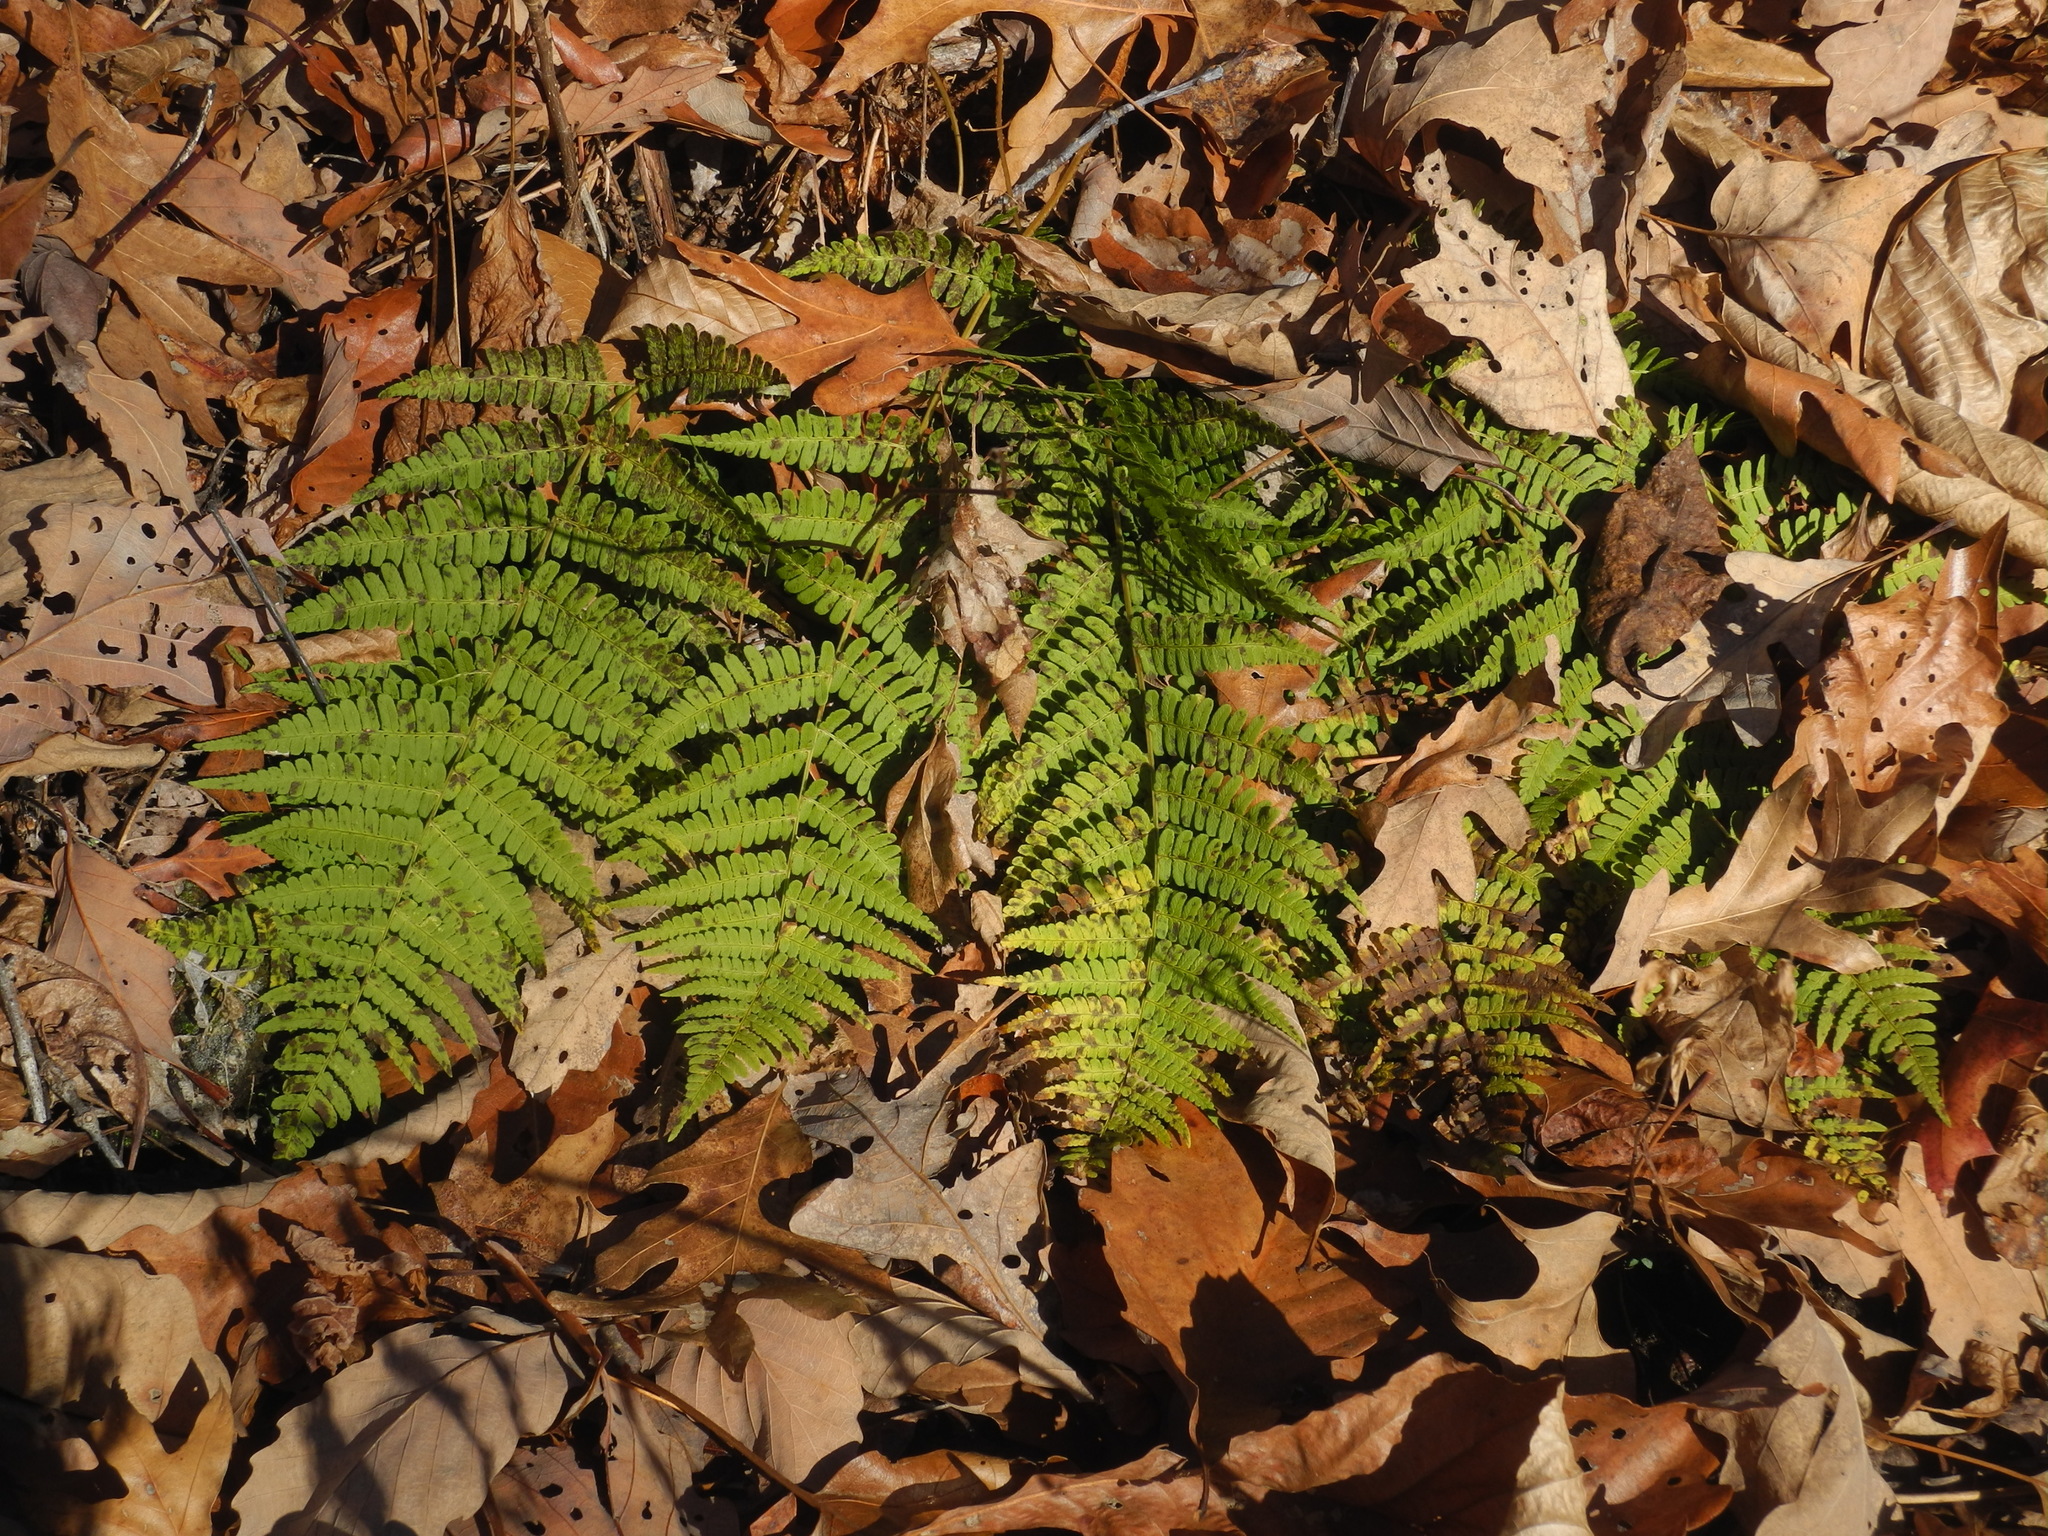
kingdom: Plantae
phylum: Tracheophyta
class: Polypodiopsida
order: Polypodiales
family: Dryopteridaceae
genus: Dryopteris
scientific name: Dryopteris marginalis
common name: Marginal wood fern
